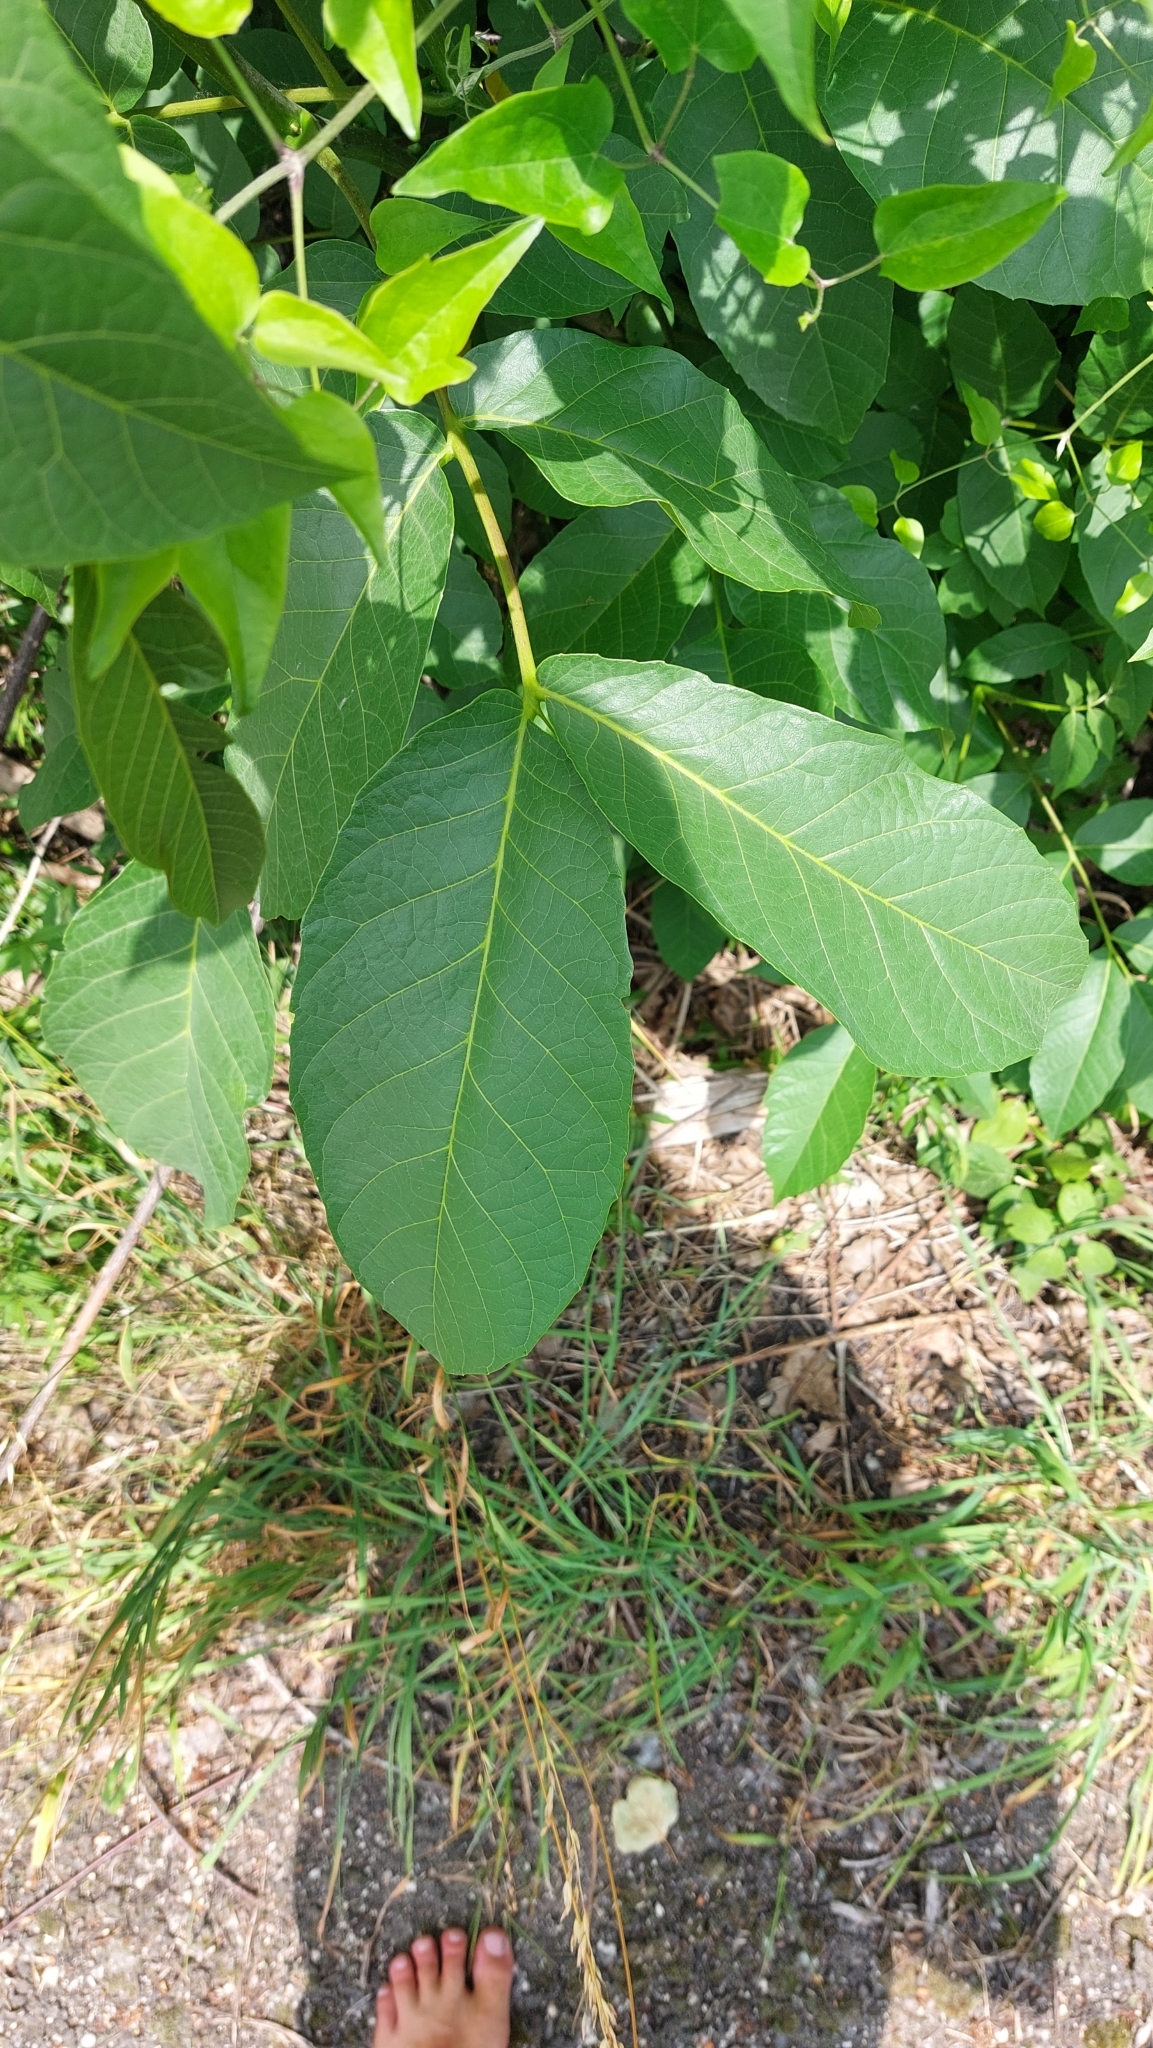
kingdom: Plantae
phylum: Tracheophyta
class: Magnoliopsida
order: Fagales
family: Juglandaceae
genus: Juglans
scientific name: Juglans regia
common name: Walnut
